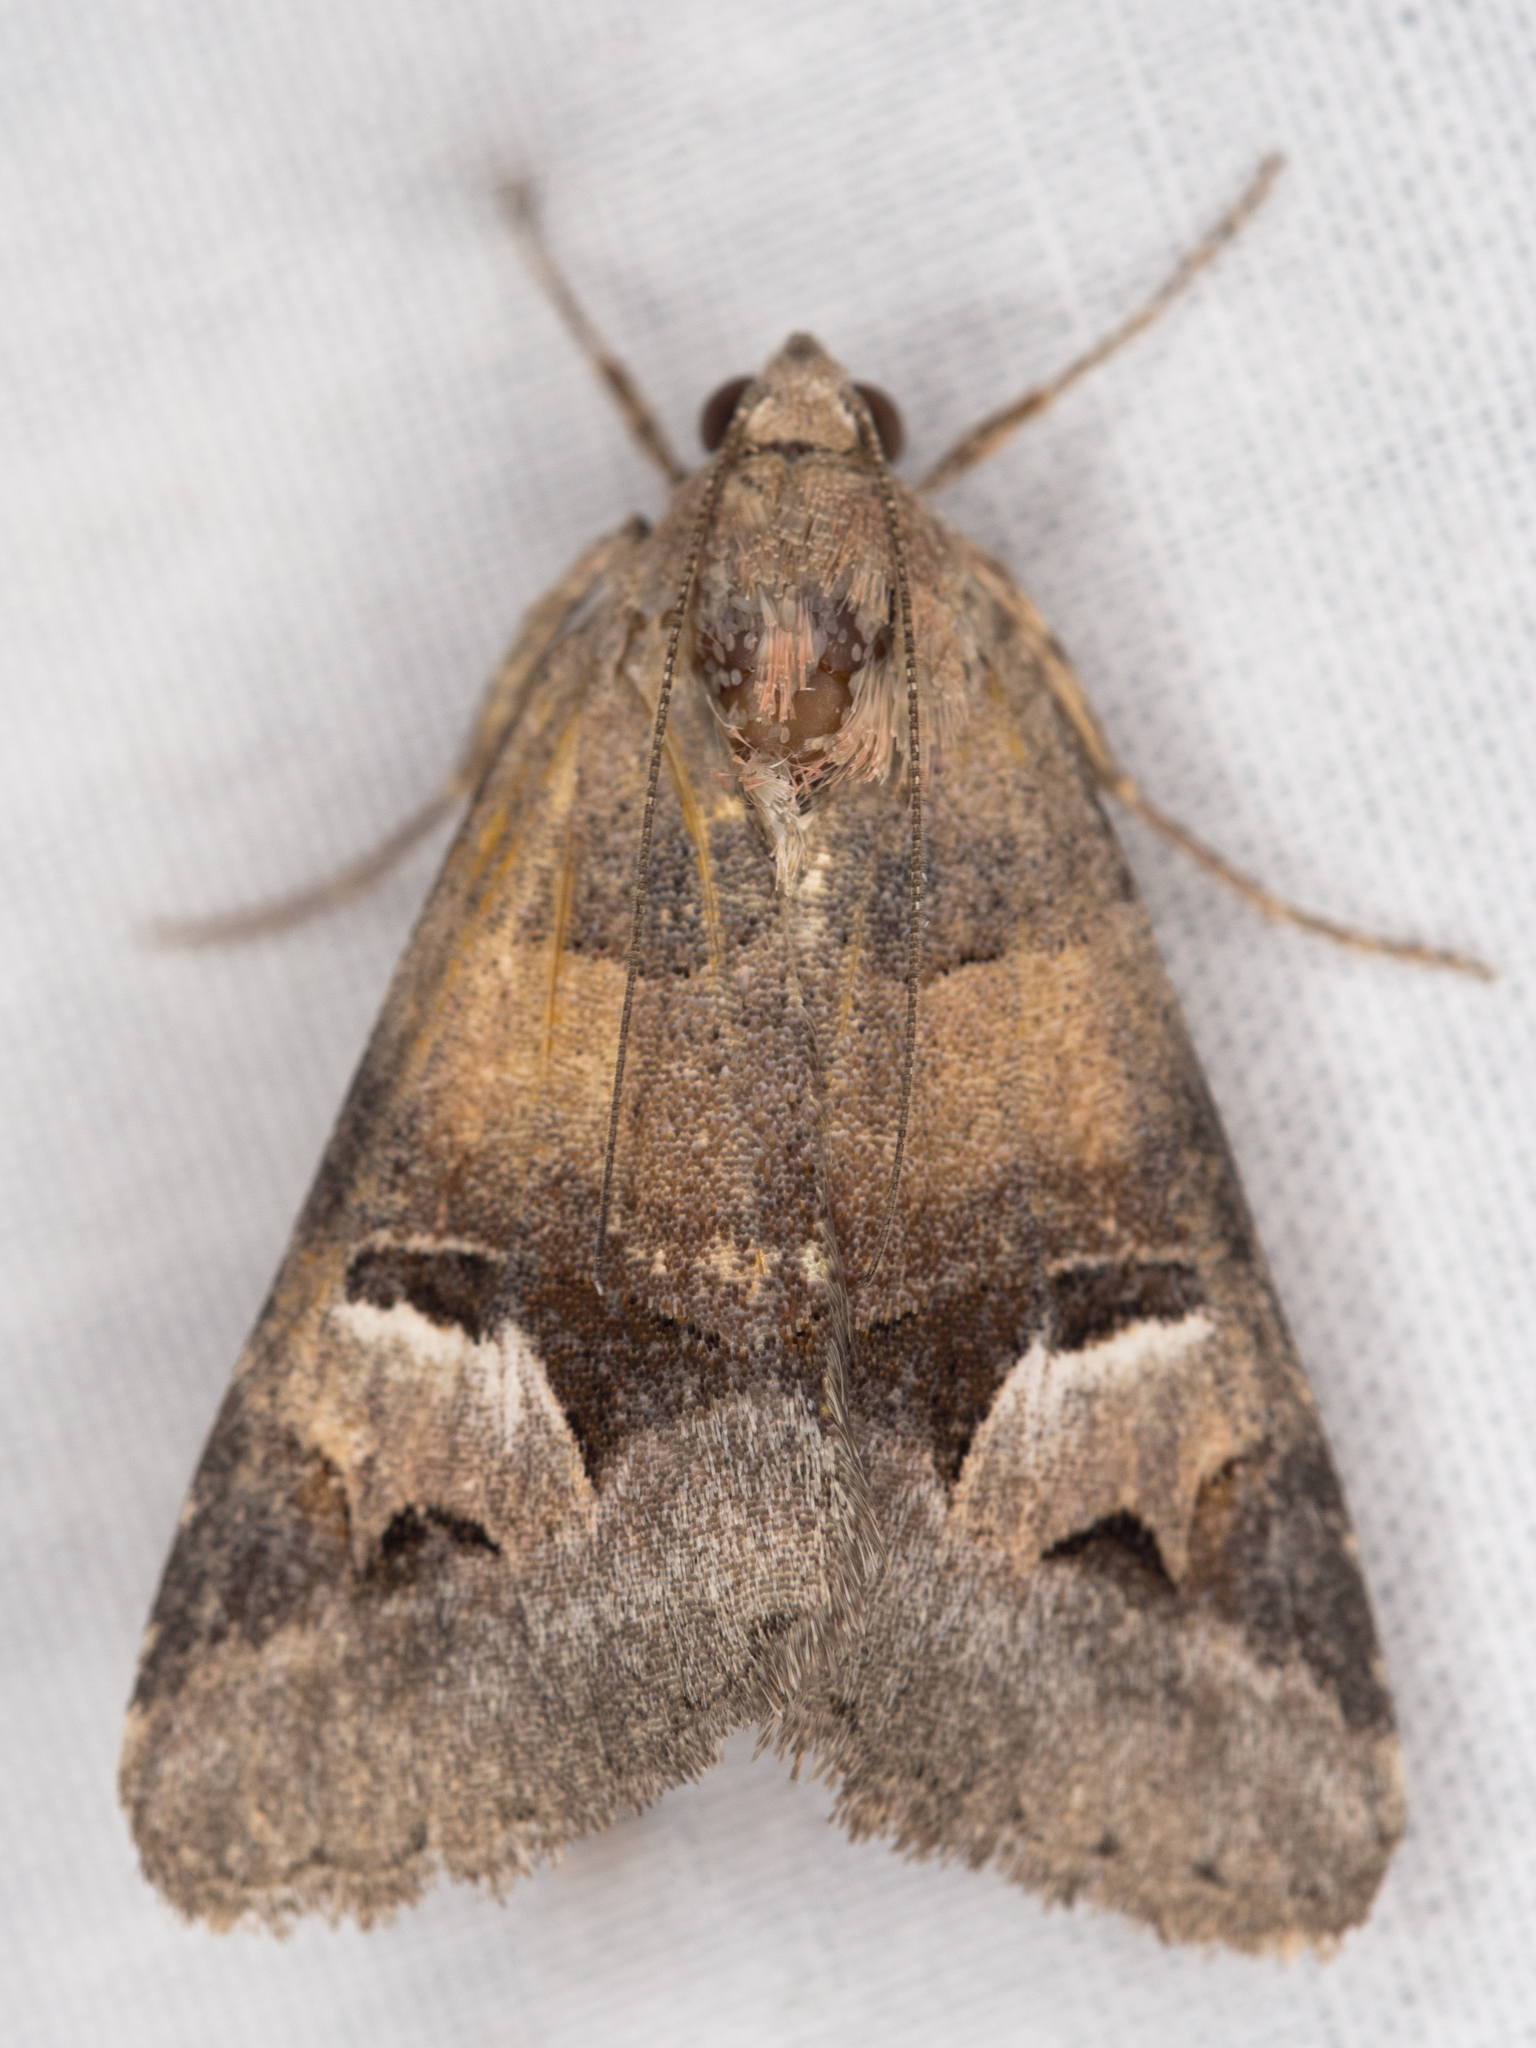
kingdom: Animalia
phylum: Arthropoda
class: Insecta
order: Lepidoptera
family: Erebidae
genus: Drasteria
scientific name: Drasteria perplexa
